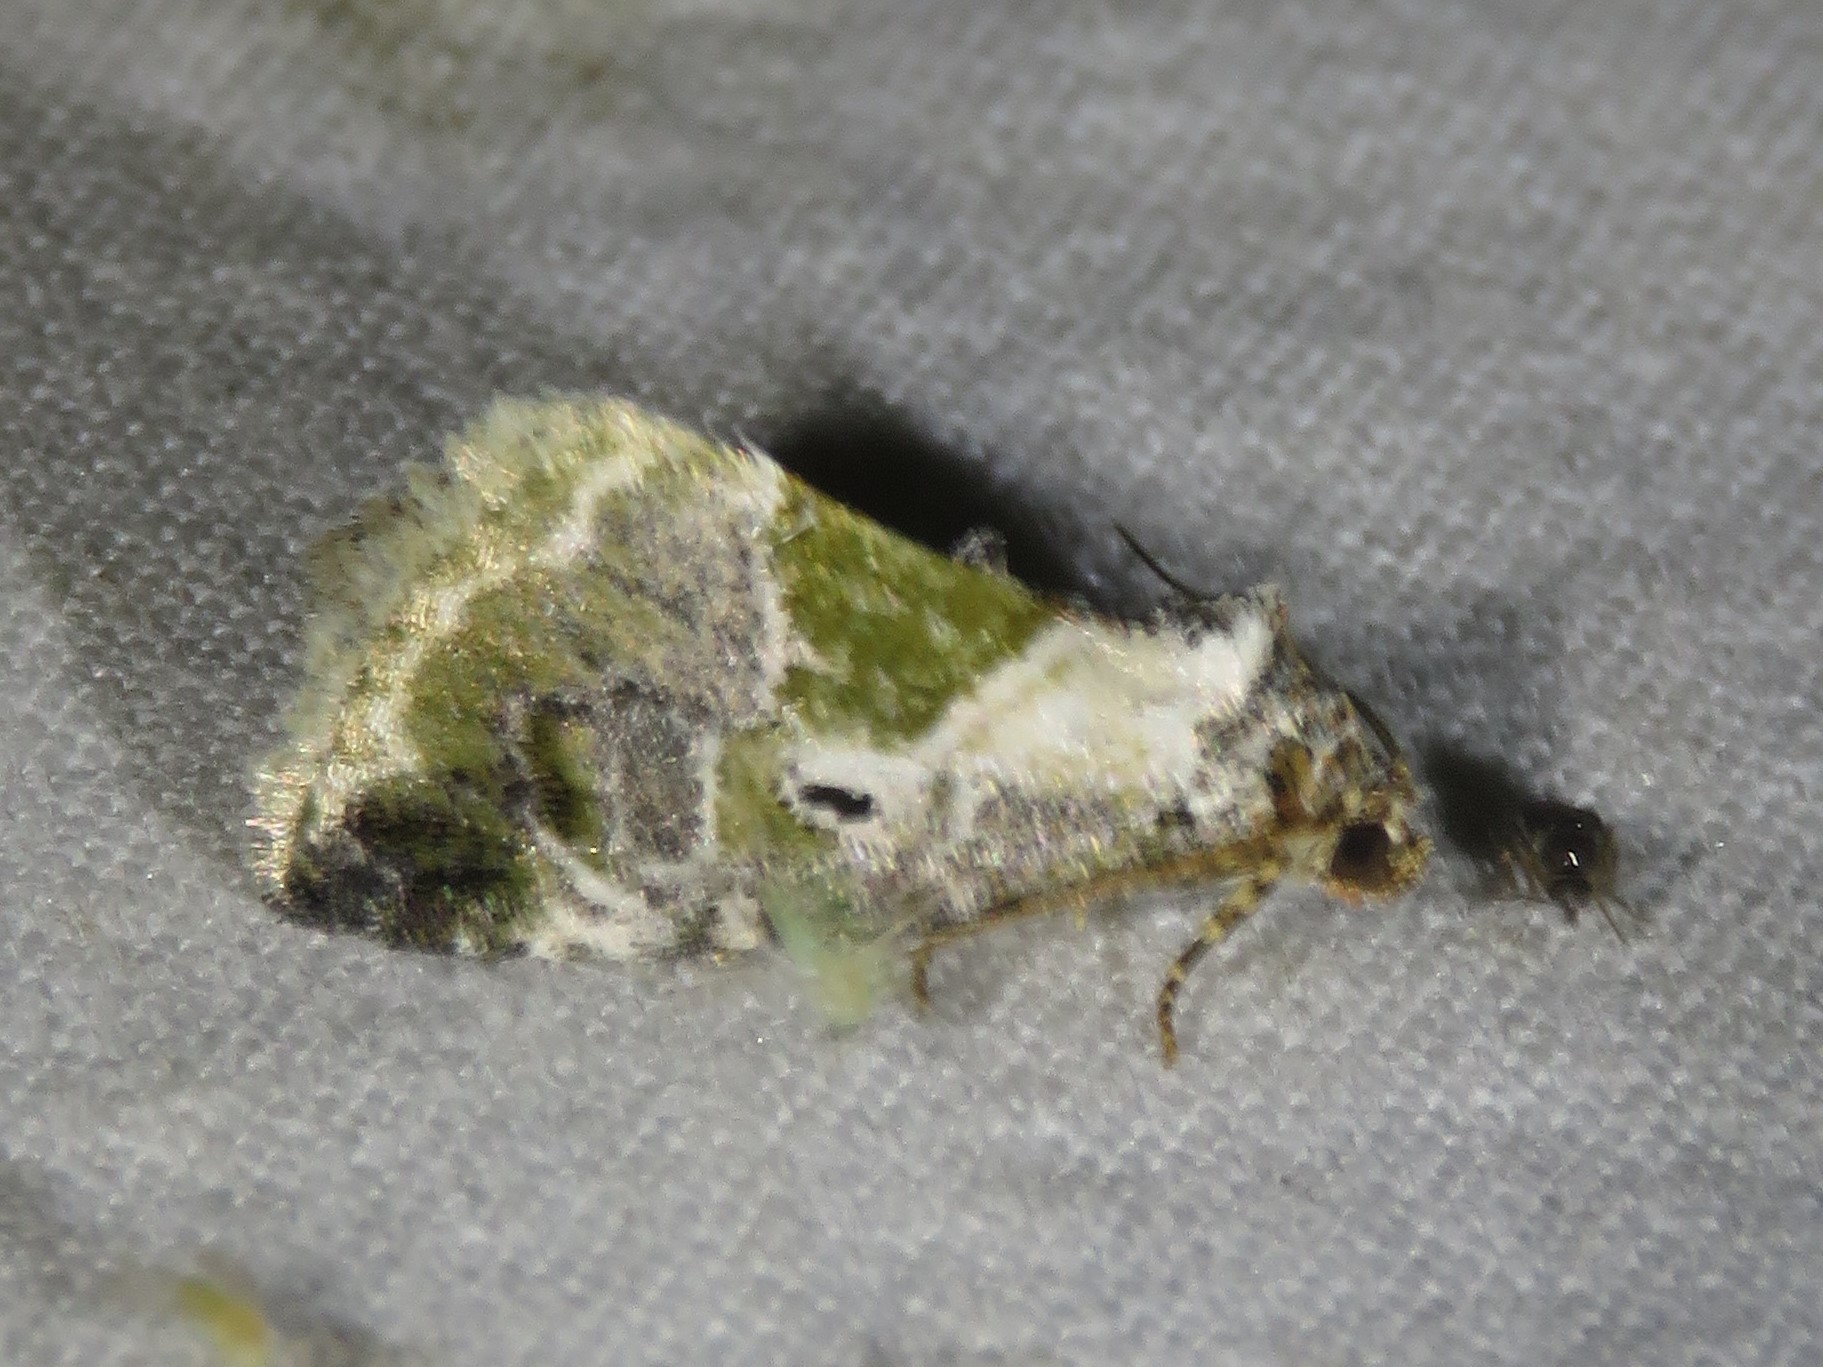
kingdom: Animalia
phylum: Arthropoda
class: Insecta
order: Lepidoptera
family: Noctuidae
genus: Maliattha
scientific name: Maliattha synochitis
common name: Black-dotted glyph
